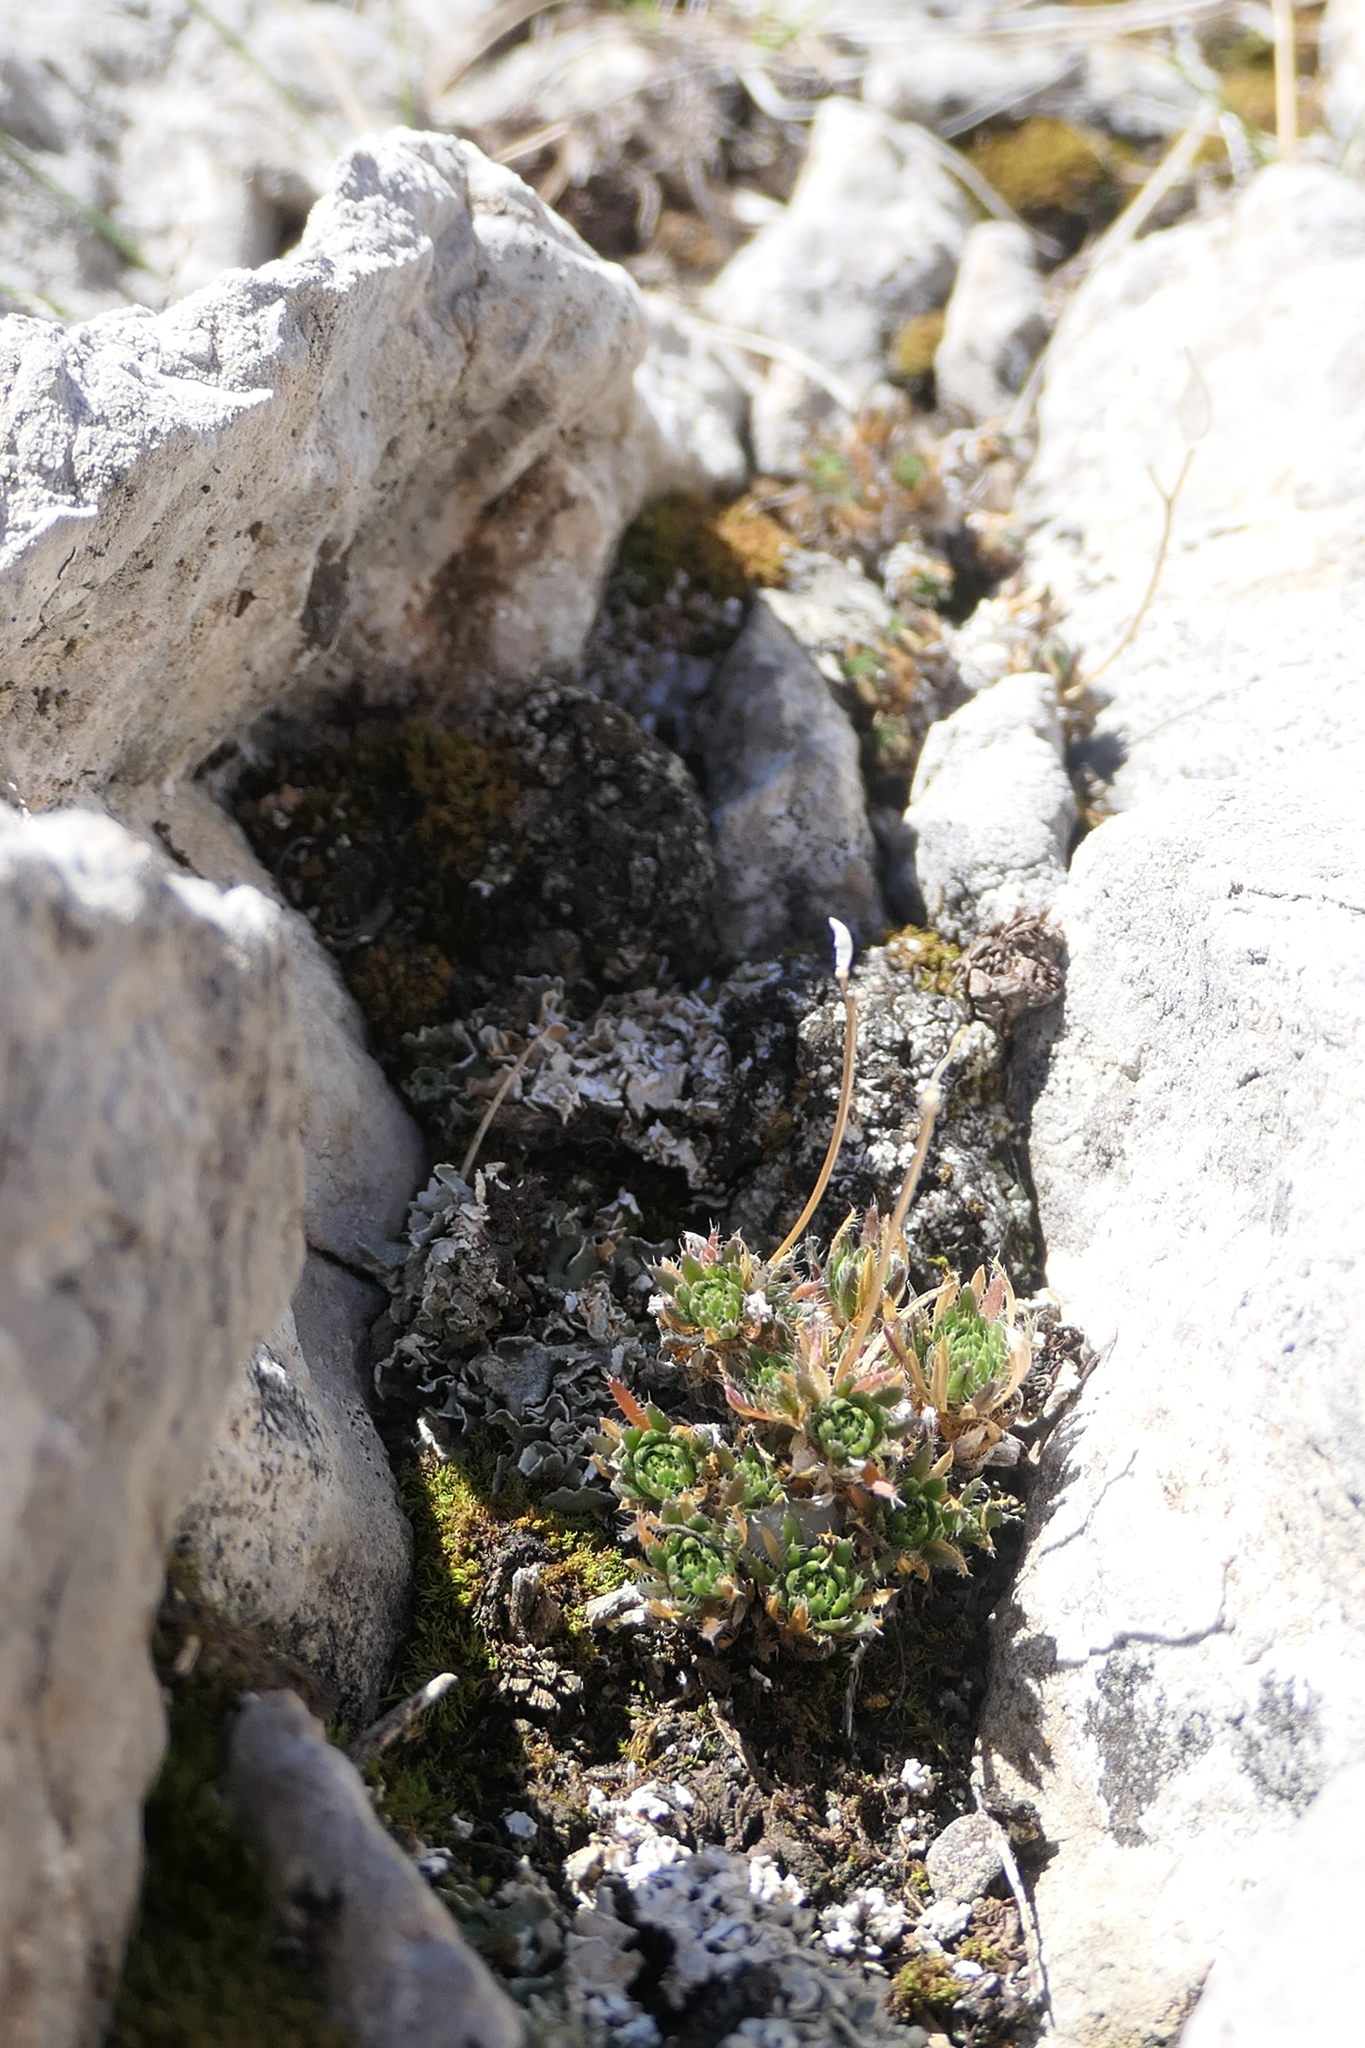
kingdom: Plantae
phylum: Tracheophyta
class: Magnoliopsida
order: Brassicales
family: Brassicaceae
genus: Draba
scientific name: Draba aizoides
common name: Yellow whitlowgrass
